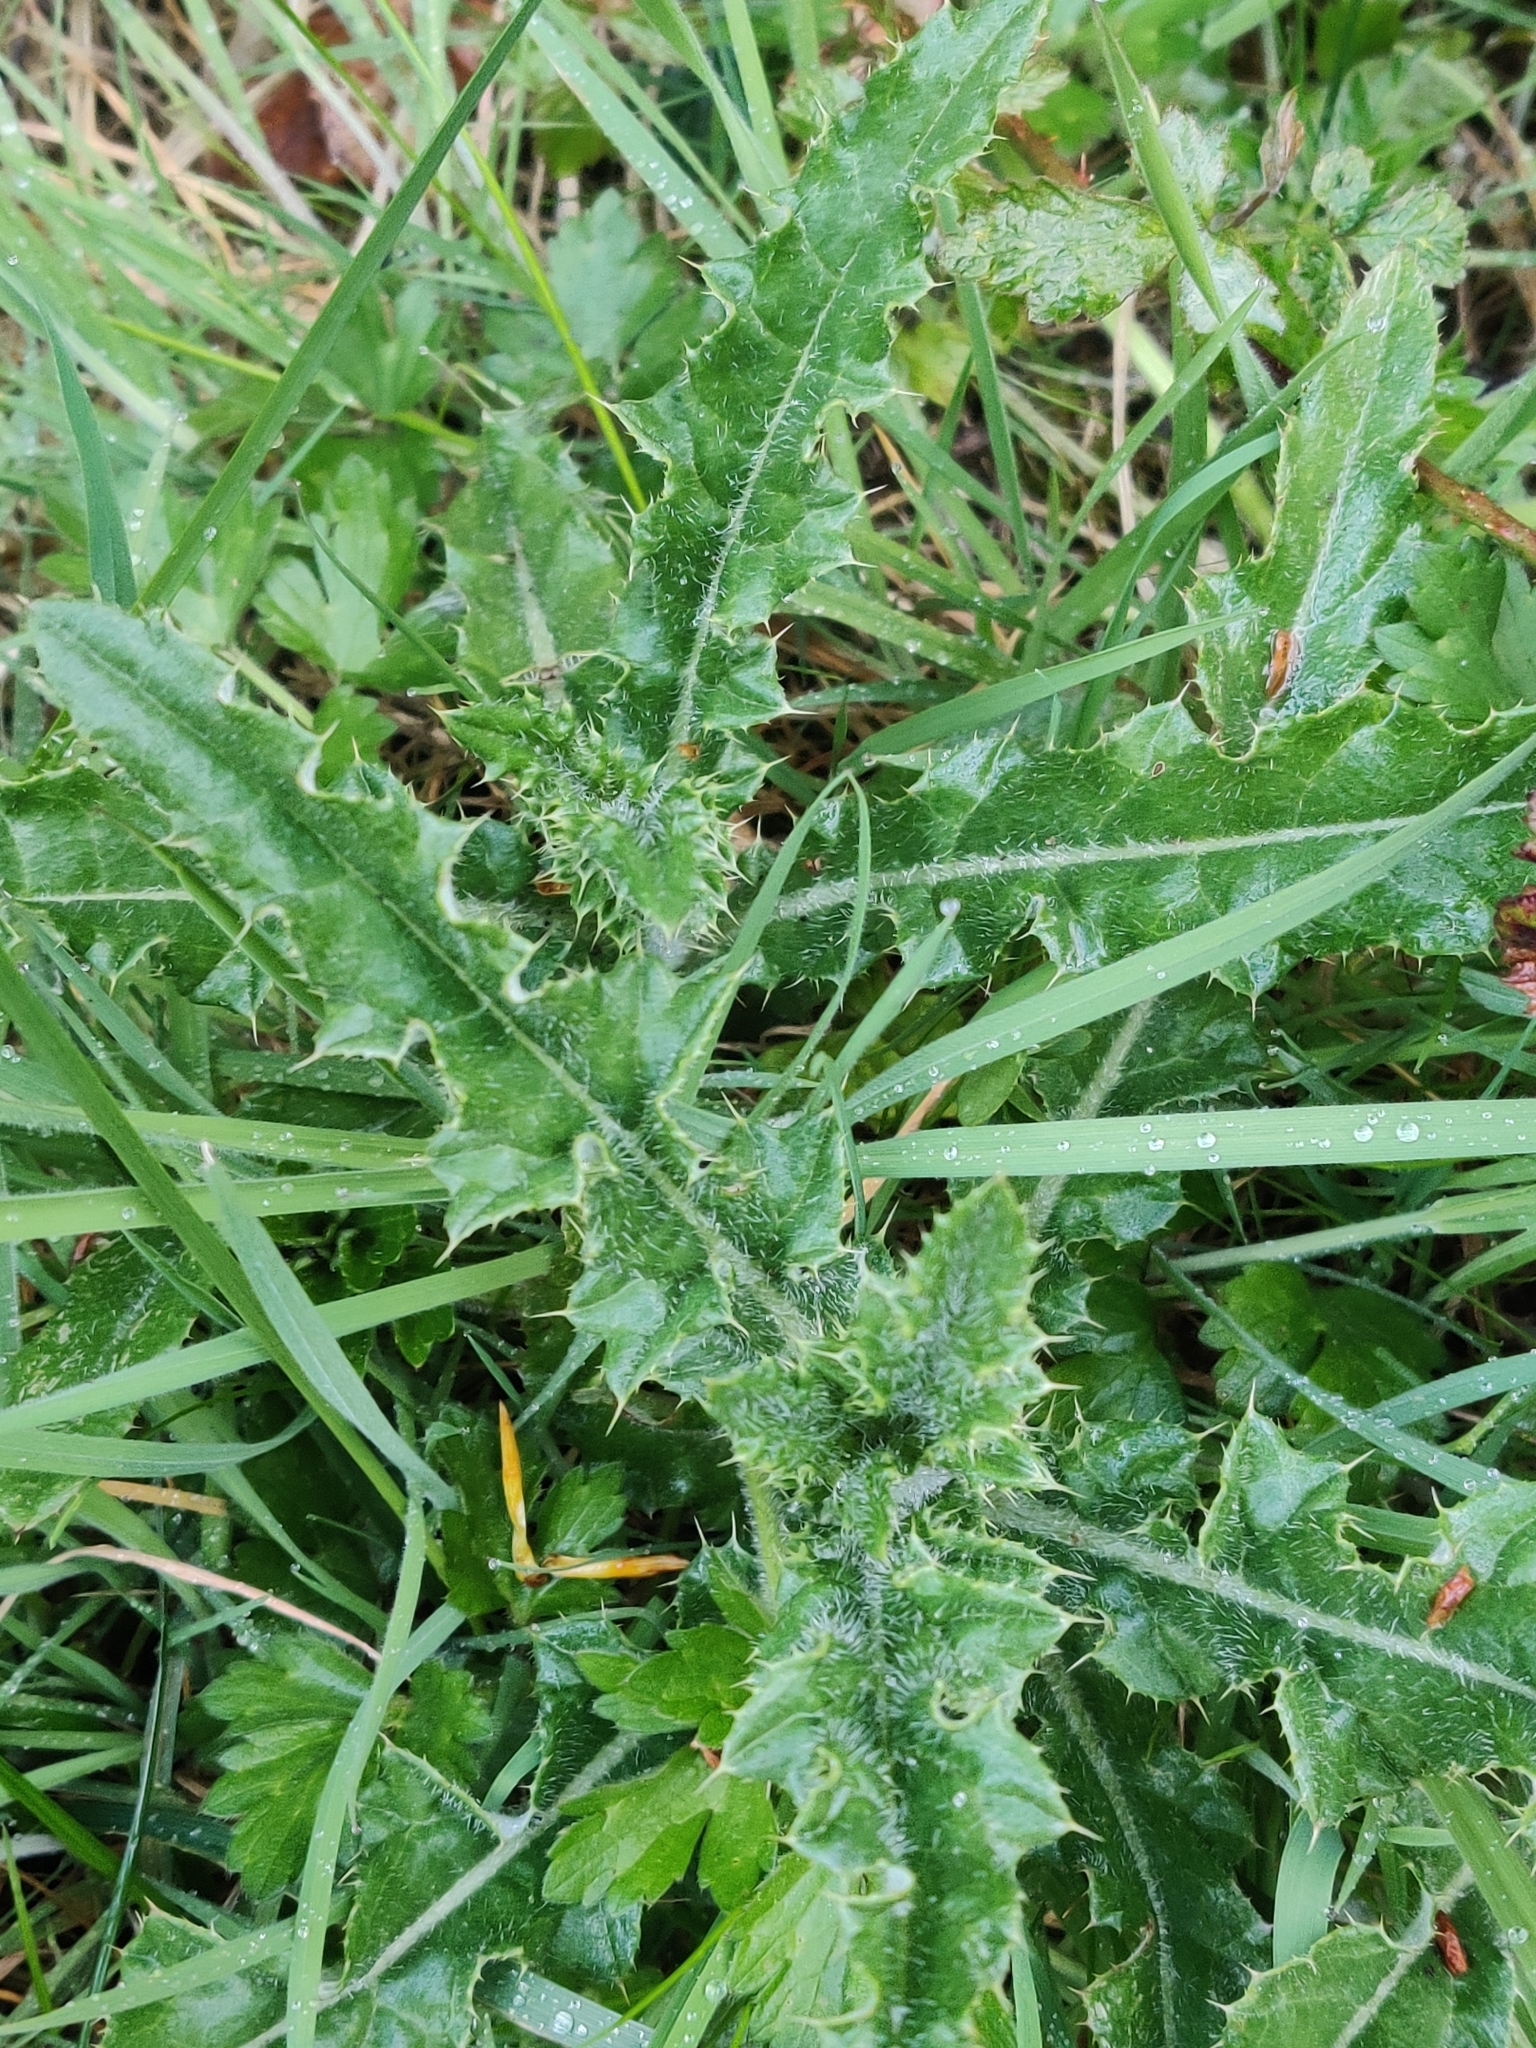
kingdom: Plantae
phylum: Tracheophyta
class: Magnoliopsida
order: Asterales
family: Asteraceae
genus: Cirsium
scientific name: Cirsium arvense
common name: Creeping thistle
